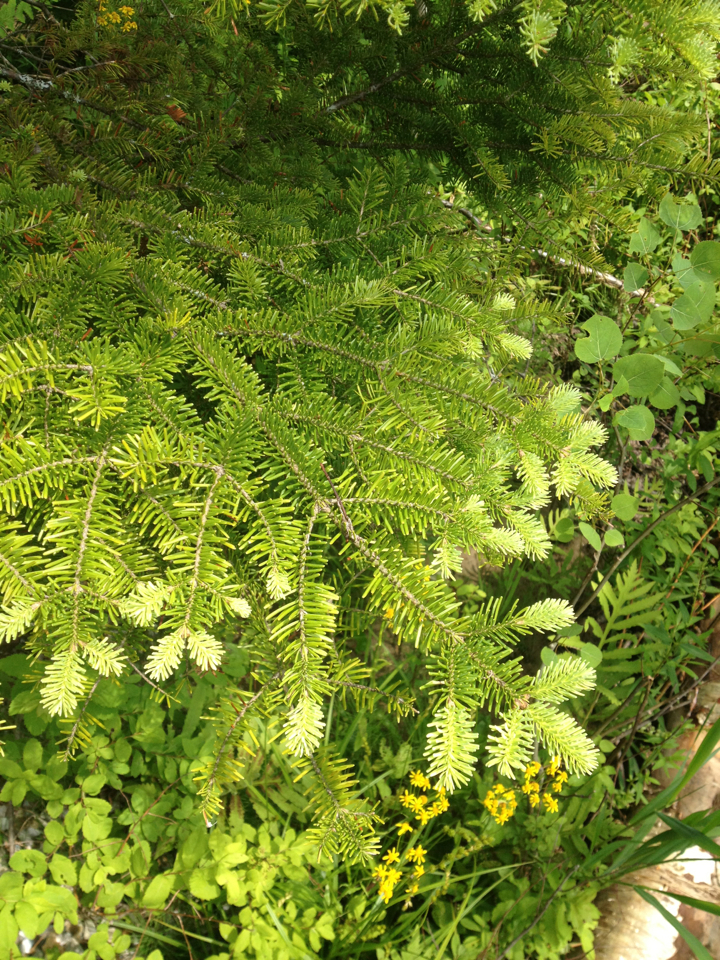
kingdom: Plantae
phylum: Tracheophyta
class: Pinopsida
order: Pinales
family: Pinaceae
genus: Abies
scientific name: Abies balsamea
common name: Balsam fir
